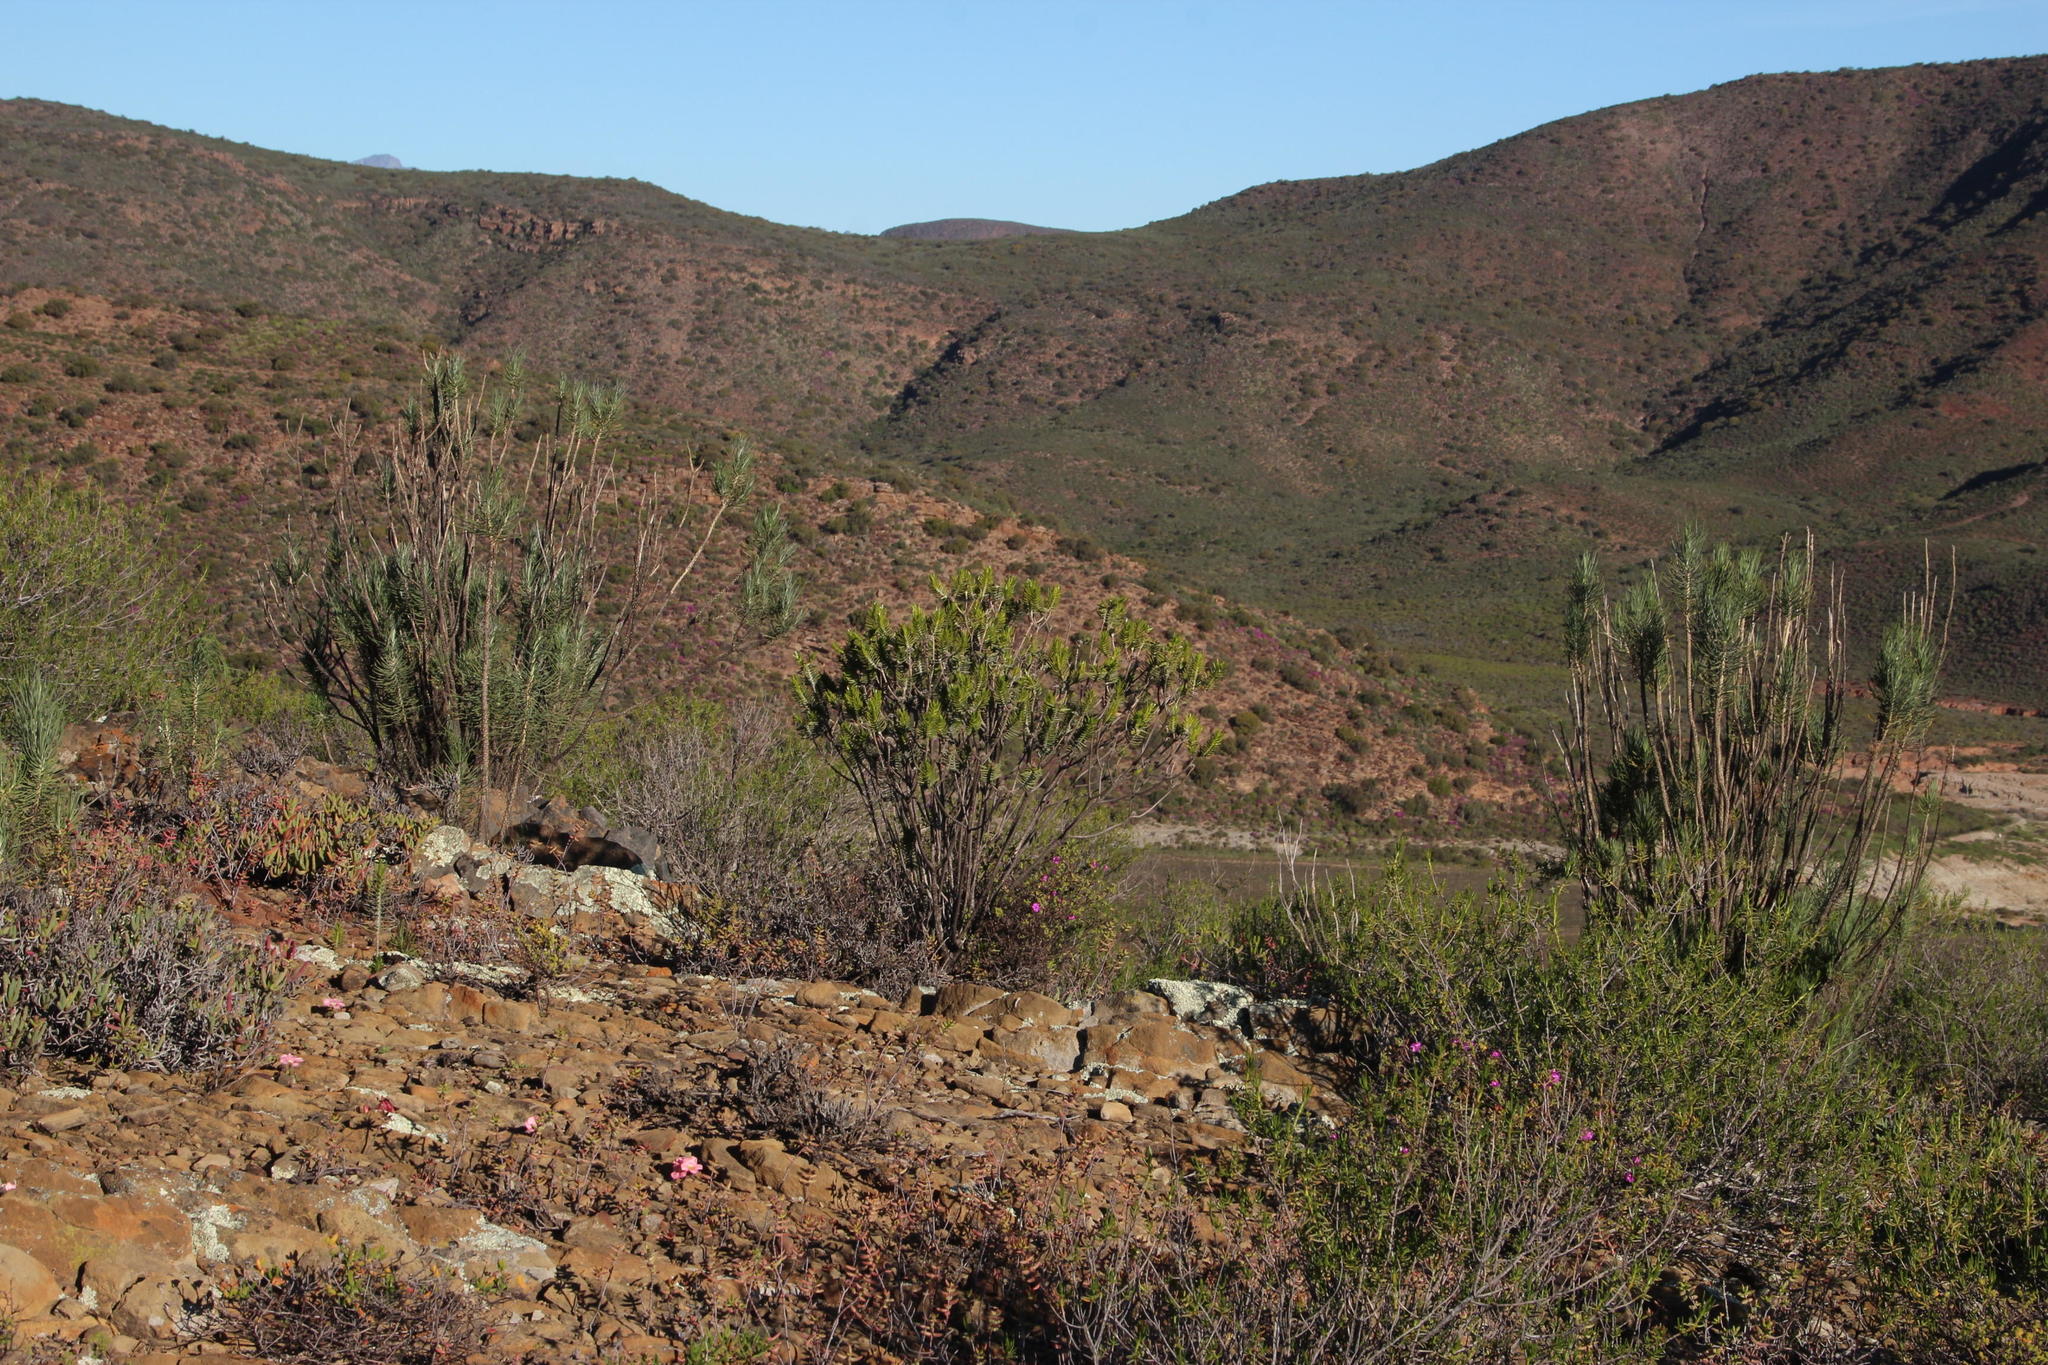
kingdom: Plantae
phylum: Tracheophyta
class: Magnoliopsida
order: Asterales
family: Asteraceae
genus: Pteronia
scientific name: Pteronia fasciculata
